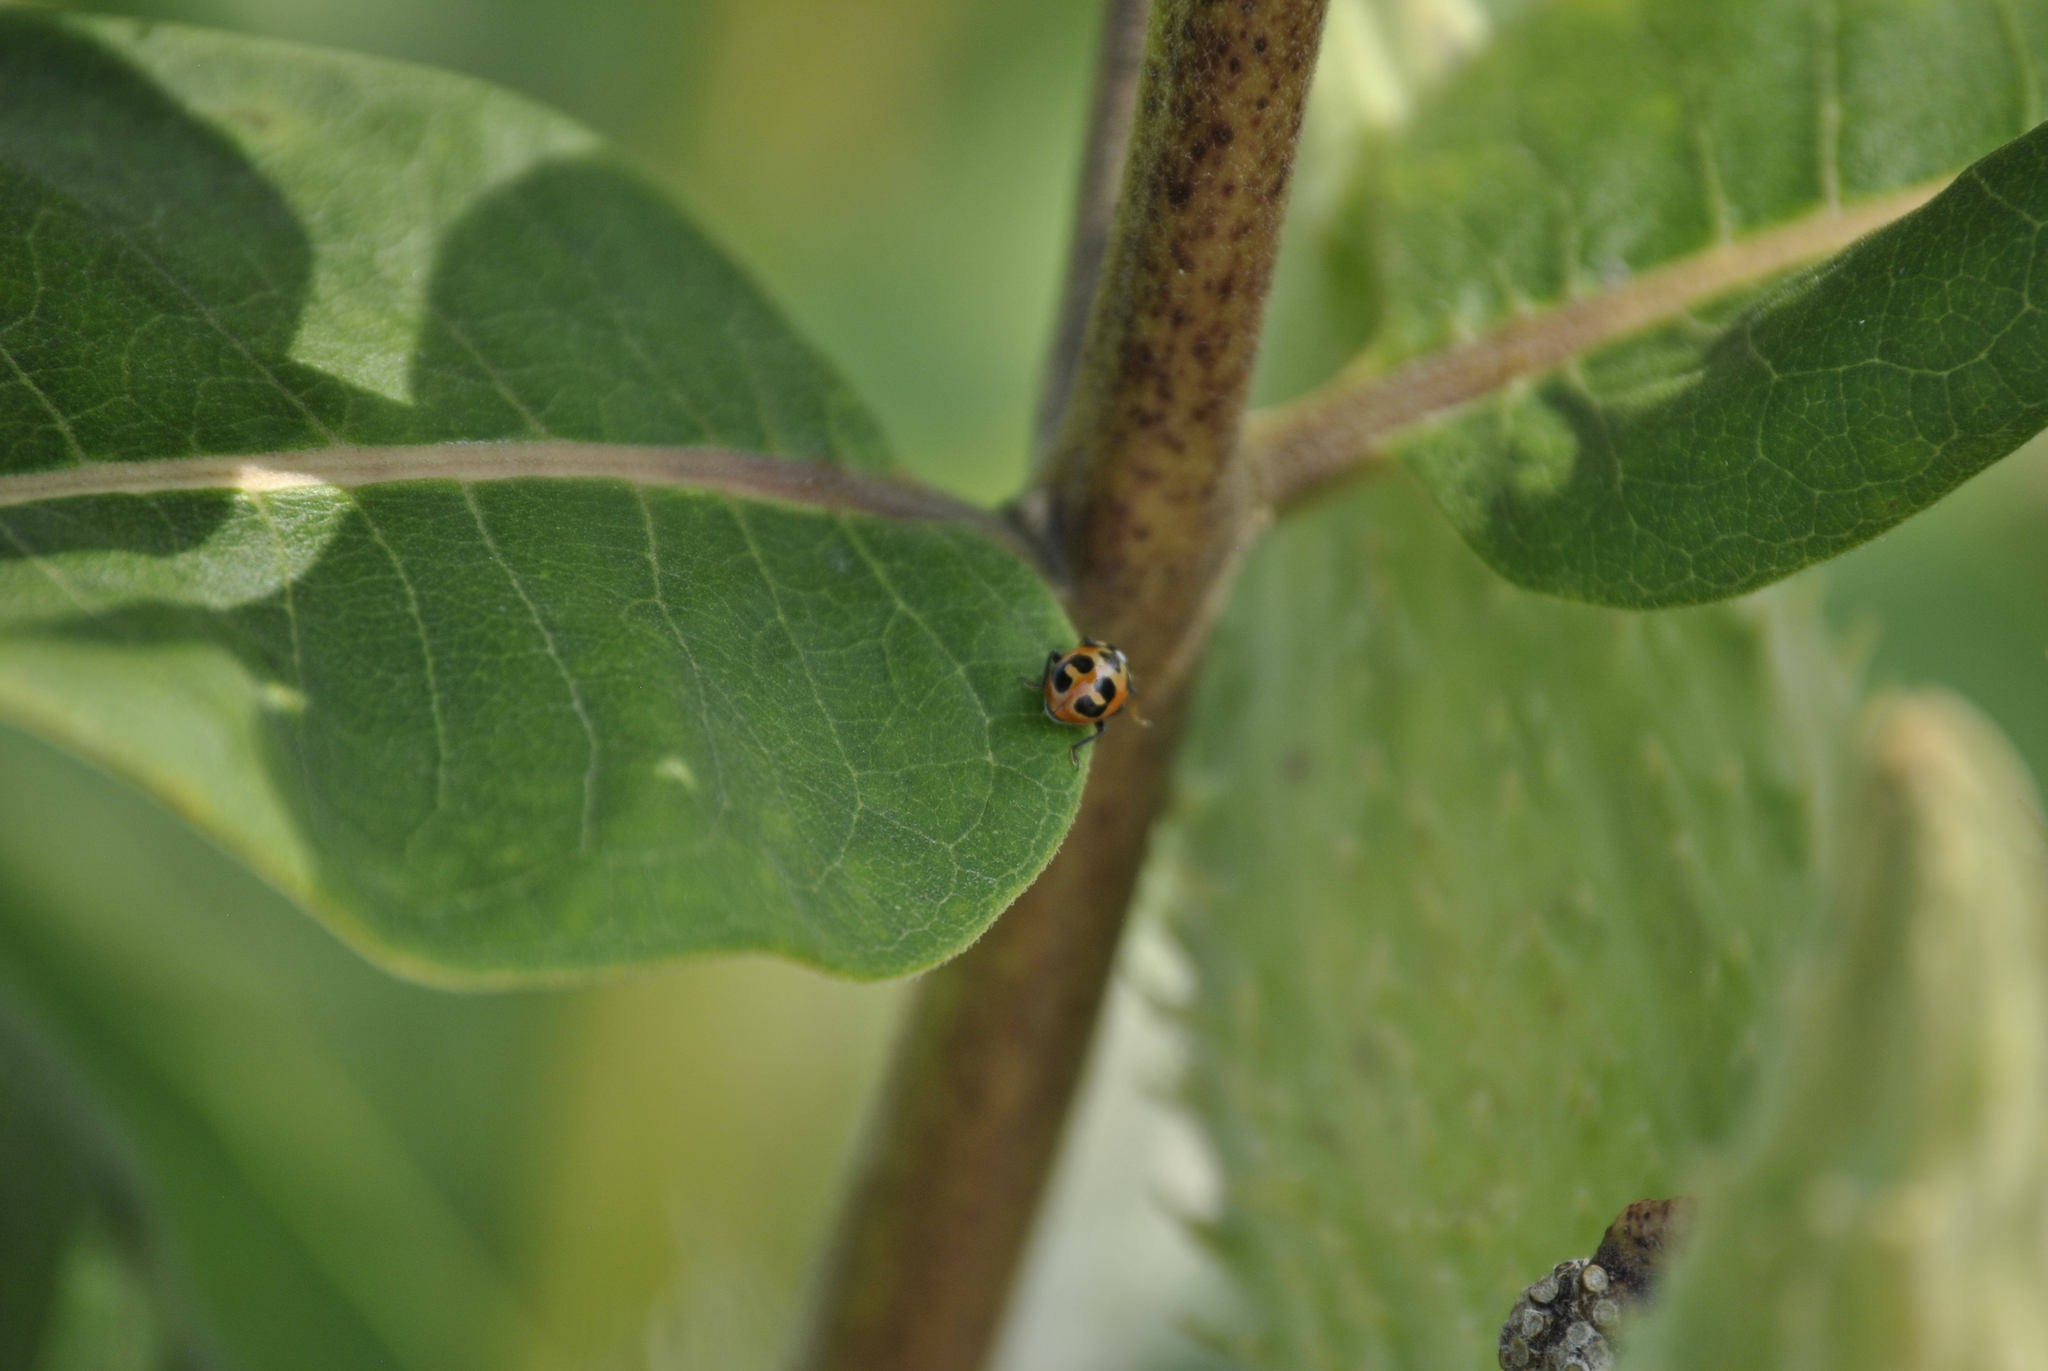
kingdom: Animalia
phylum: Arthropoda
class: Insecta
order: Coleoptera
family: Coccinellidae
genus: Hippodamia
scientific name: Hippodamia parenthesis
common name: Parenthesis lady beetle
